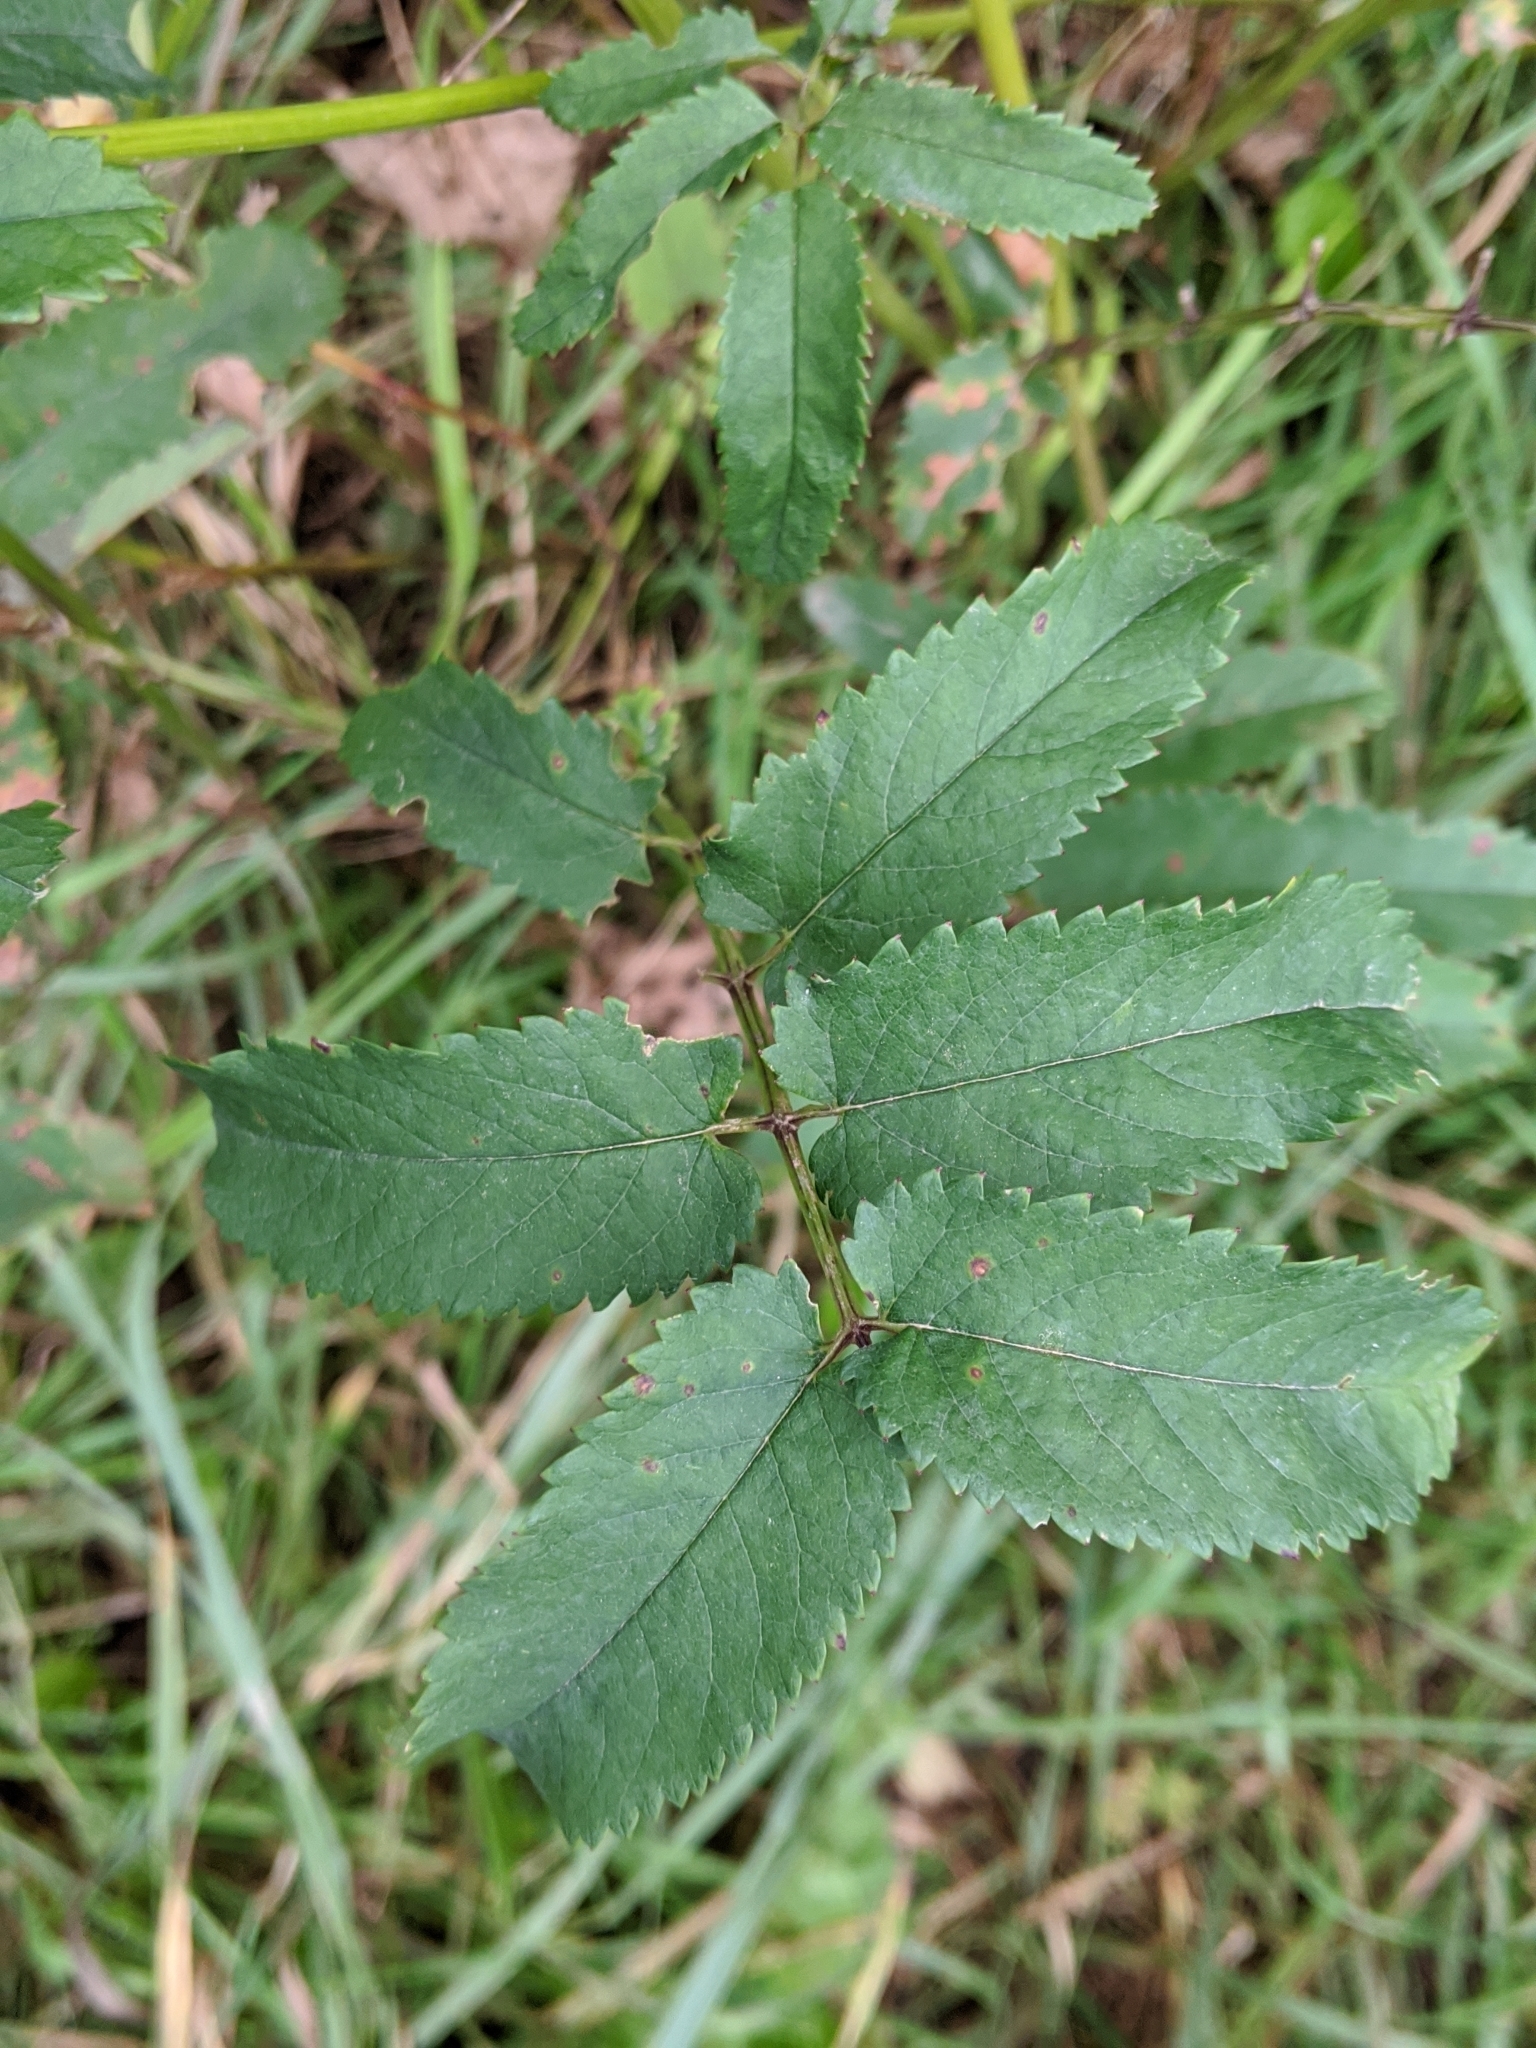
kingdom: Plantae
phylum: Tracheophyta
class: Magnoliopsida
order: Rosales
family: Rosaceae
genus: Sanguisorba
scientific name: Sanguisorba canadensis
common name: White burnet
